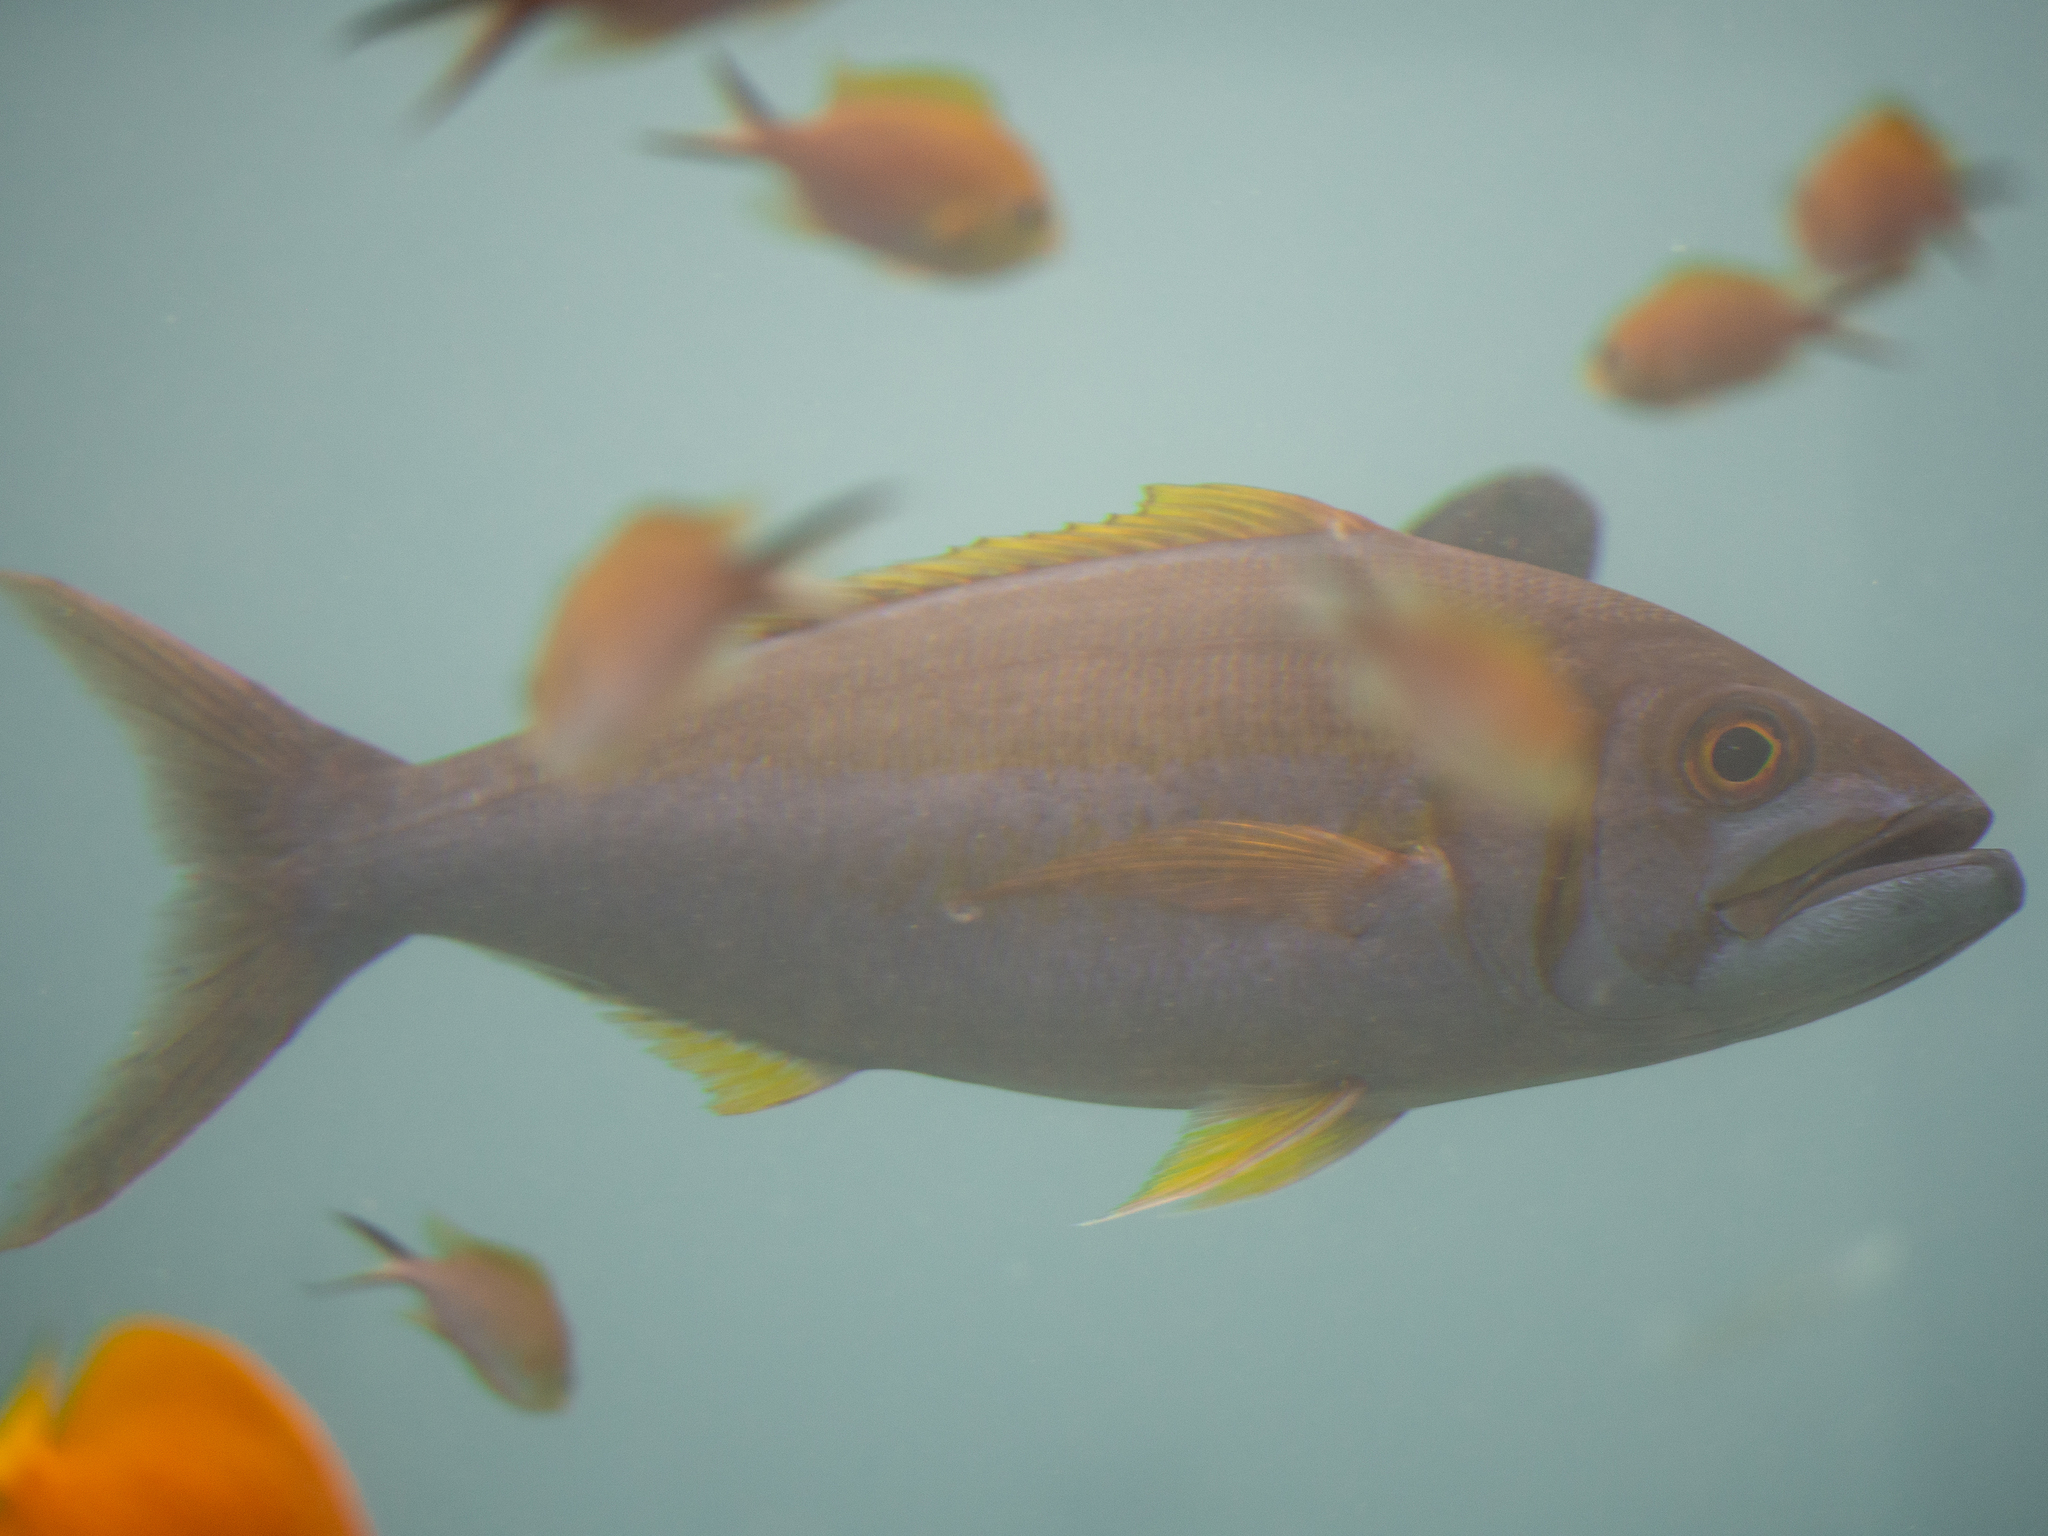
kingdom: Animalia
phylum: Chordata
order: Perciformes
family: Lutjanidae
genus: Aphareus
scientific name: Aphareus furca
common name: Smalltooth jobfish
